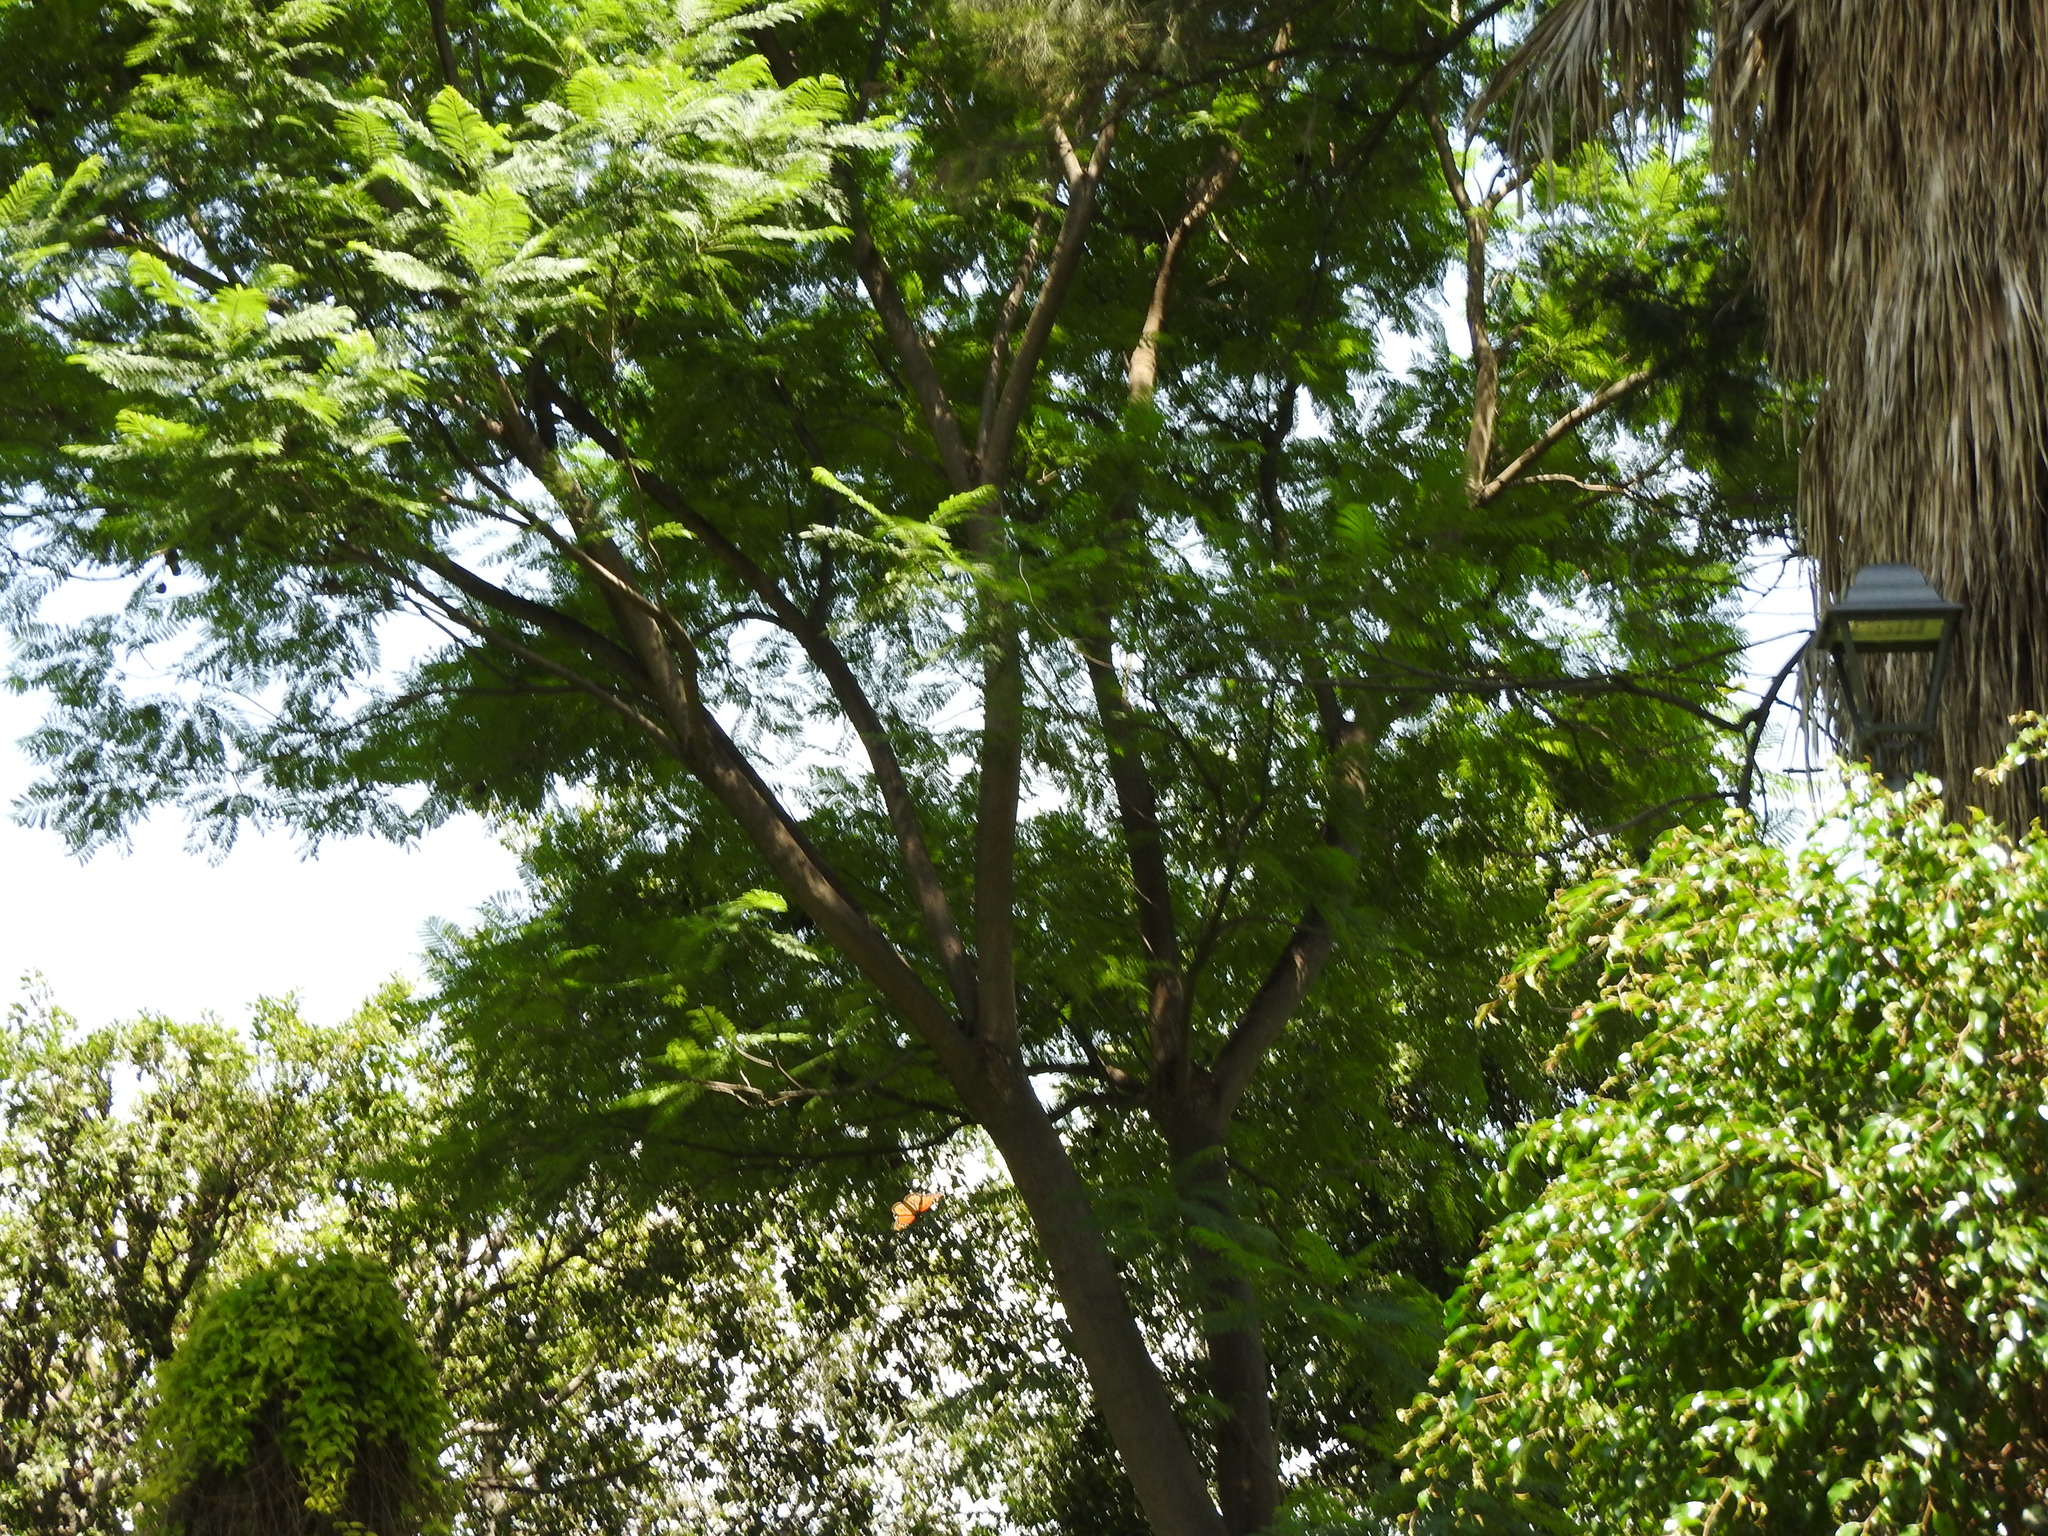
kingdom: Animalia
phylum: Arthropoda
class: Insecta
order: Lepidoptera
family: Nymphalidae
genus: Danaus
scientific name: Danaus plexippus
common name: Monarch
